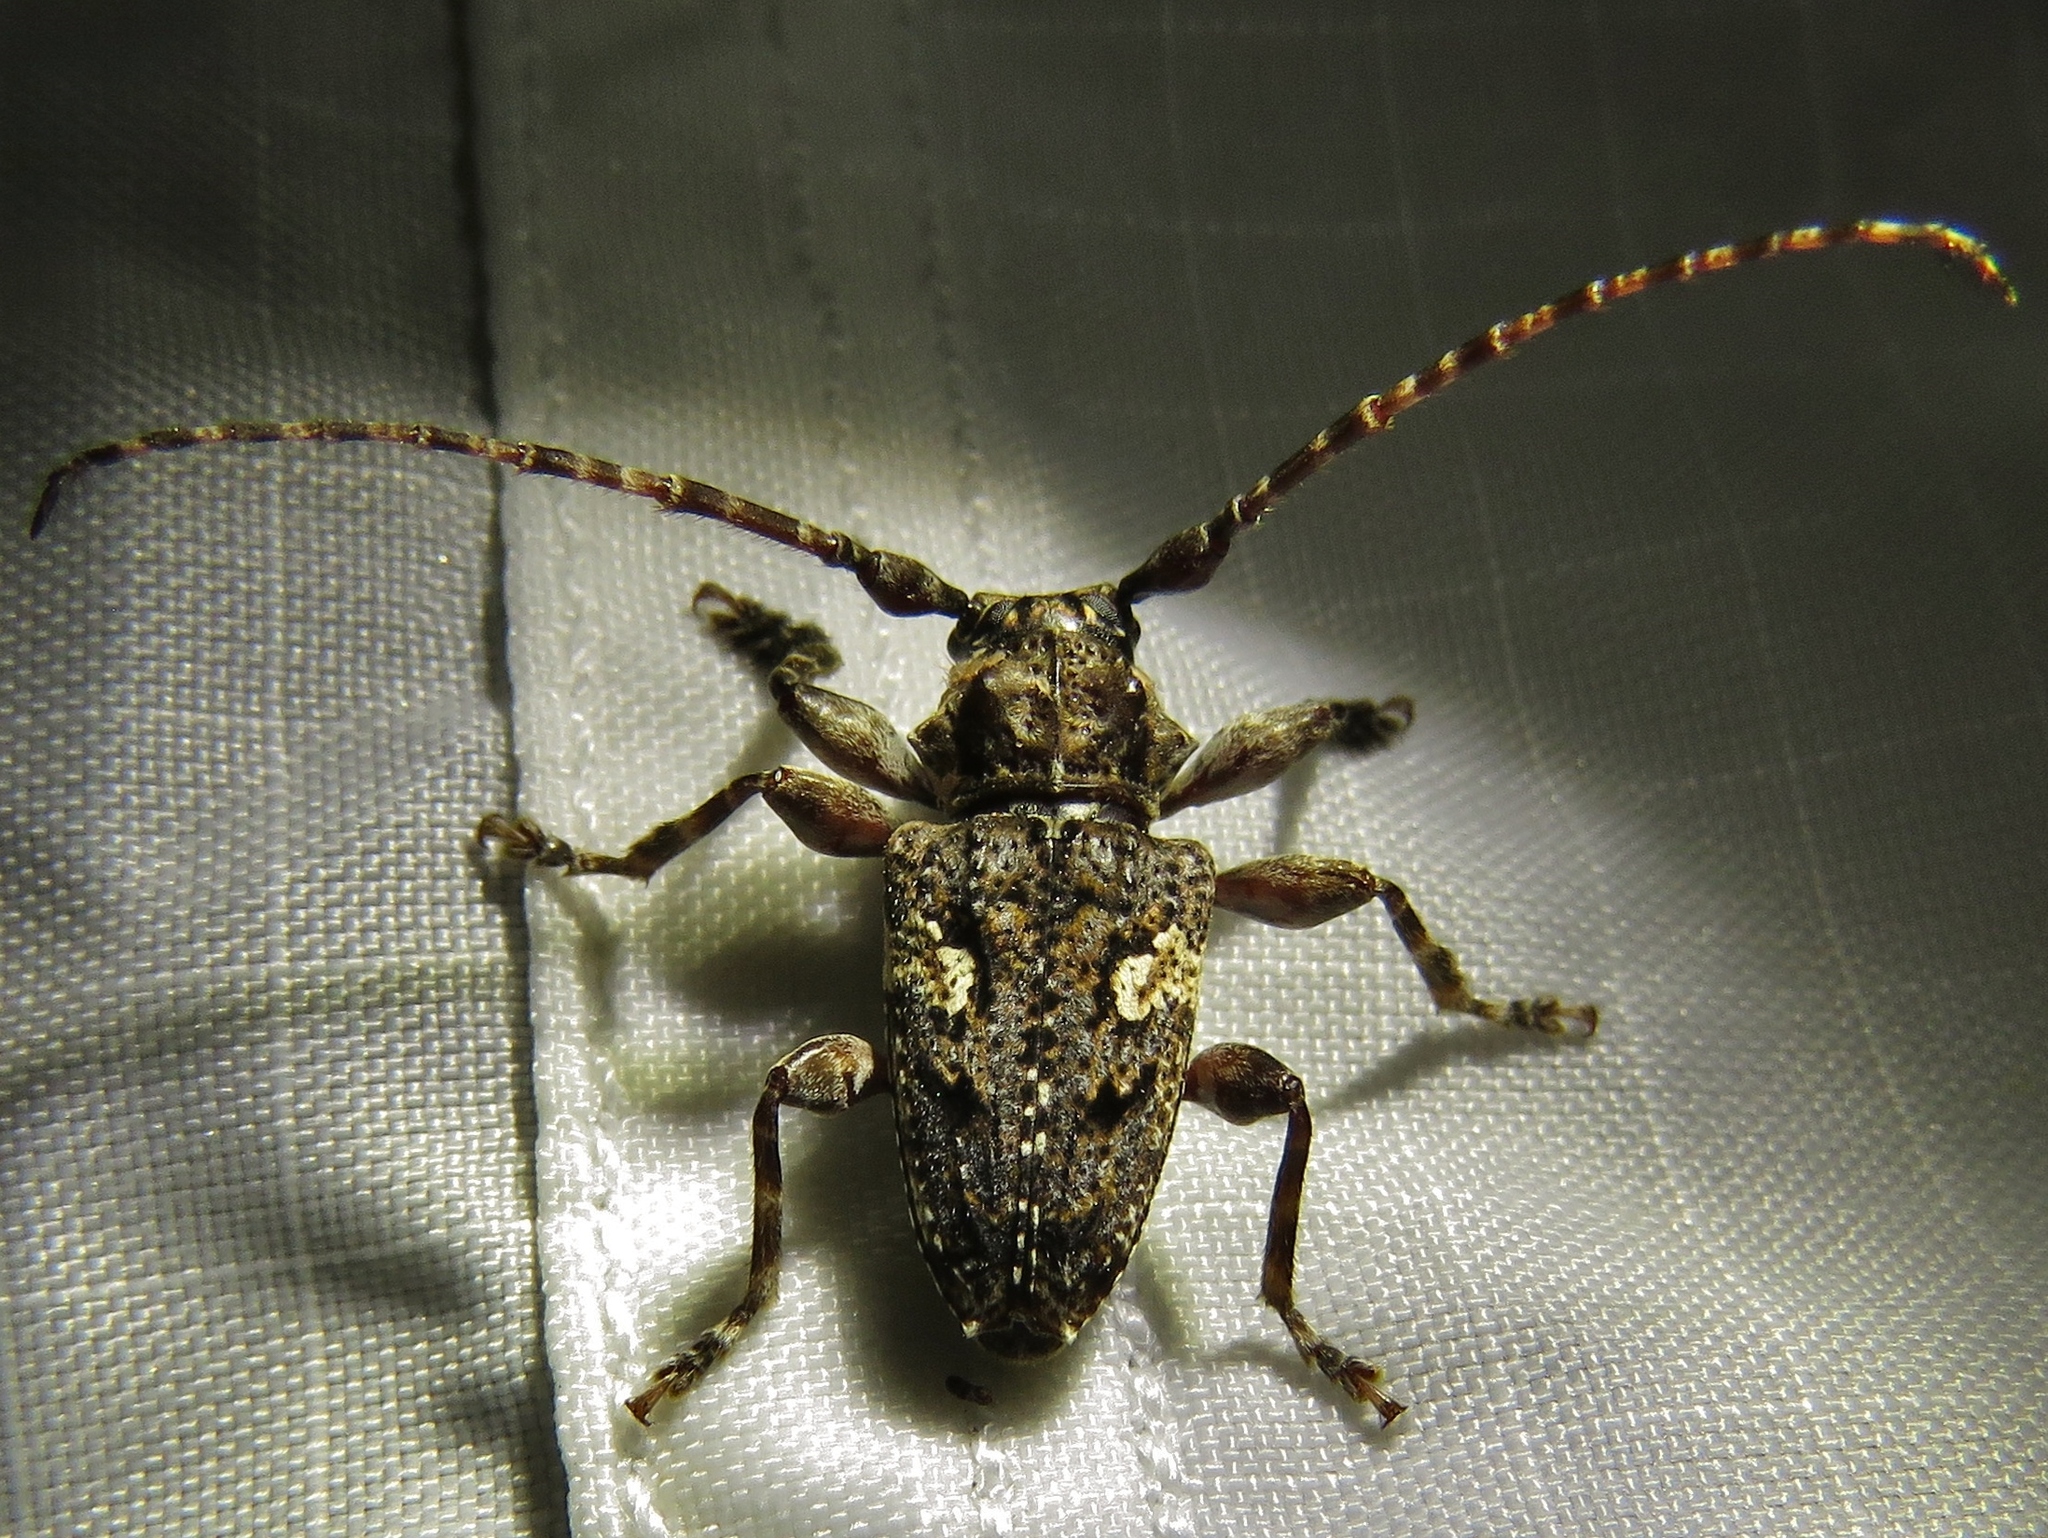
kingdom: Animalia
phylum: Arthropoda
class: Insecta
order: Coleoptera
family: Cerambycidae
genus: Psapharochrus
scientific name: Psapharochrus circumflexus
